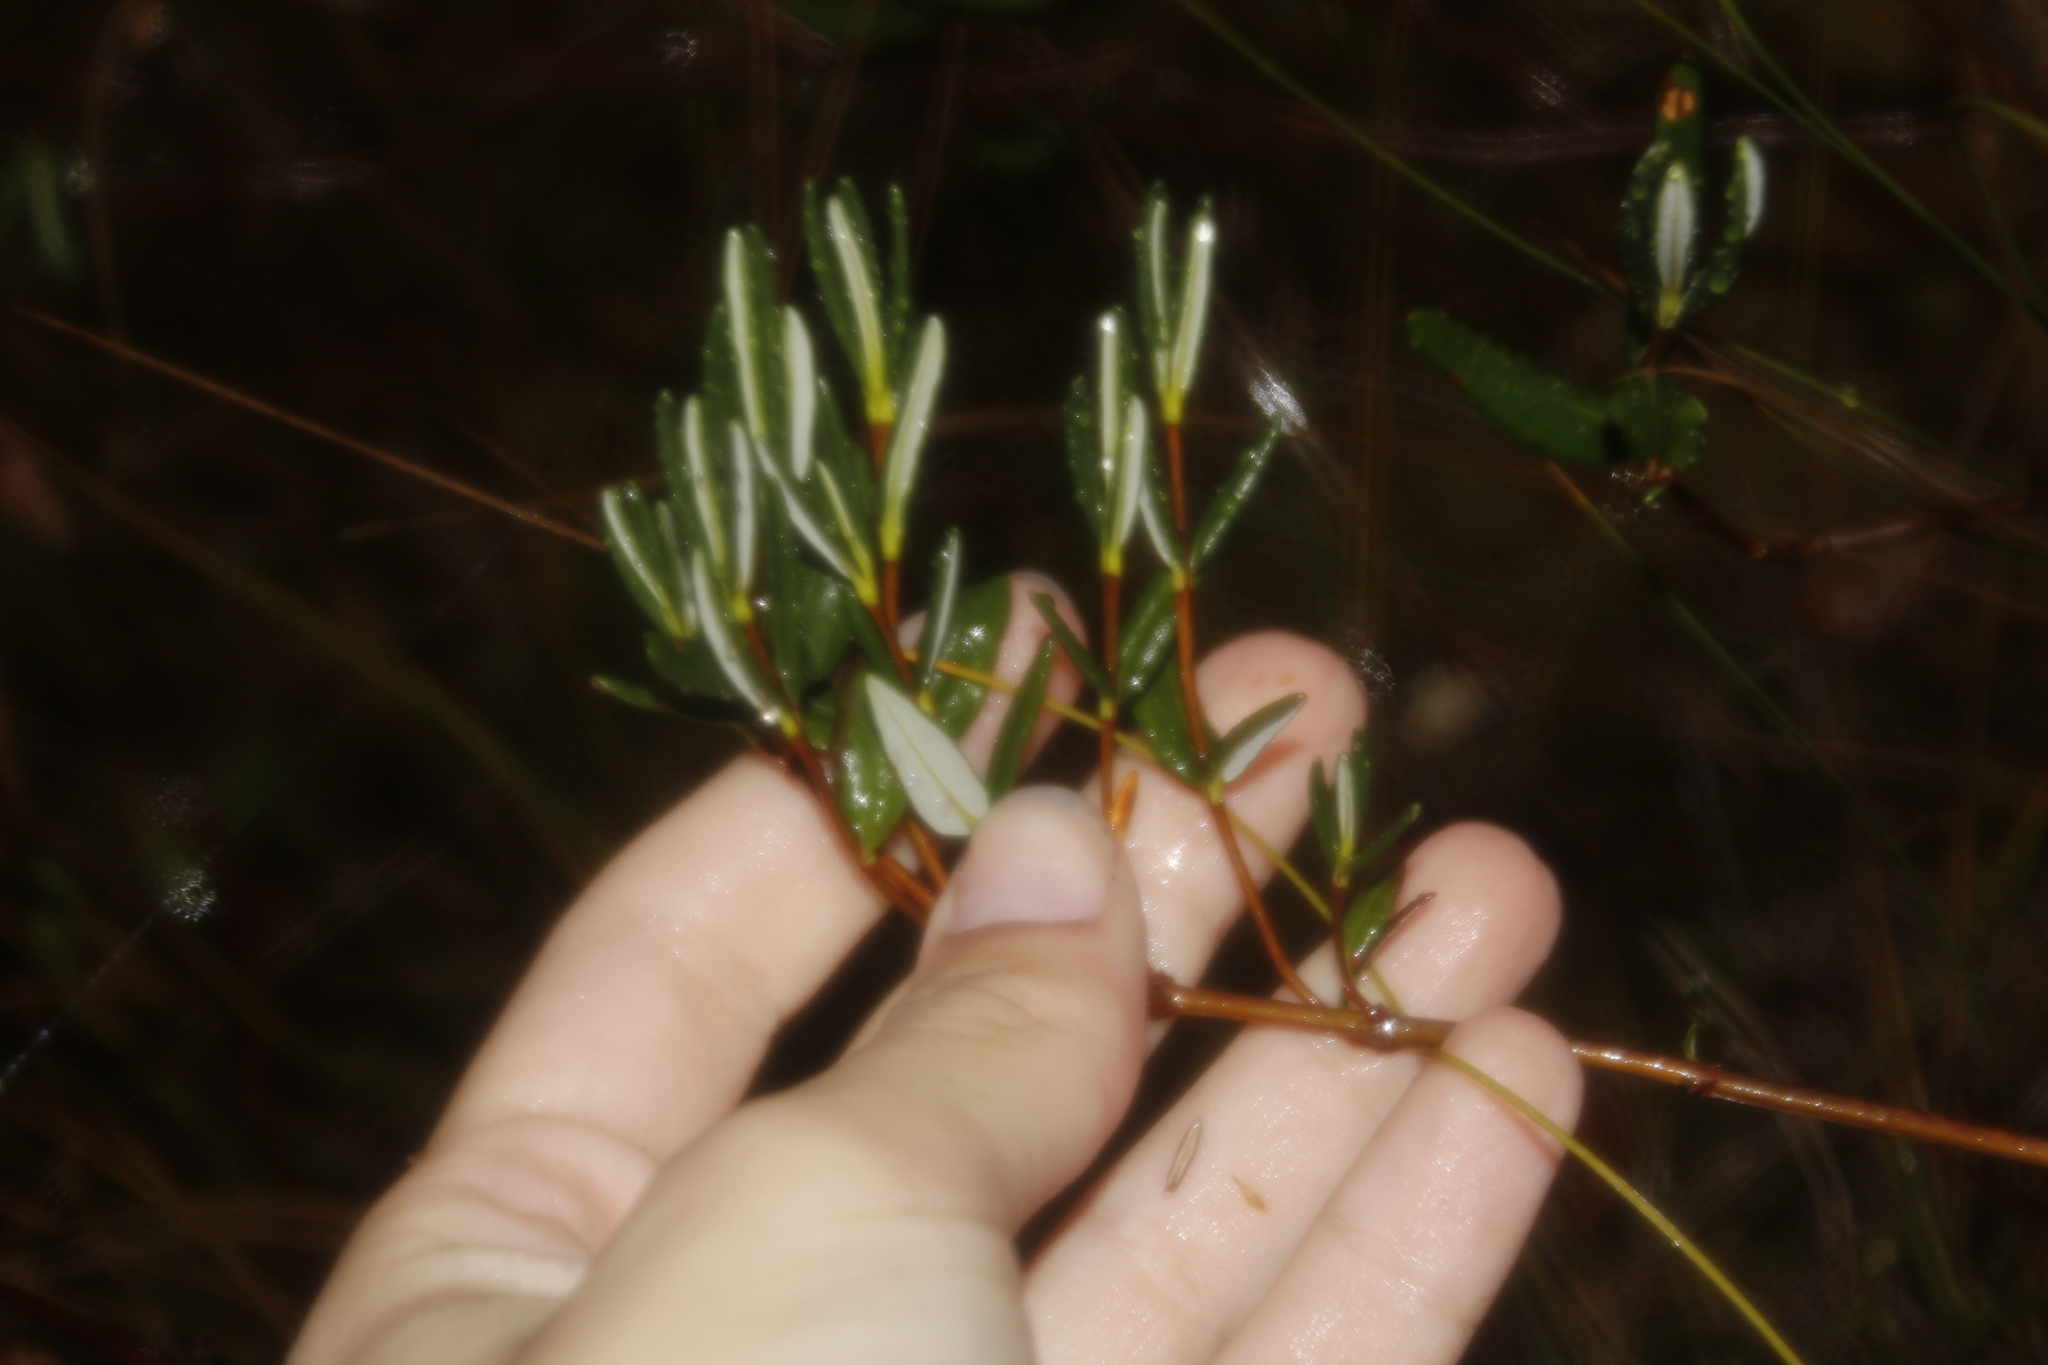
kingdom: Plantae
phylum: Tracheophyta
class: Magnoliopsida
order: Ericales
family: Ericaceae
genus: Kalmia
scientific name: Kalmia polifolia
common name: Bog-laurel
